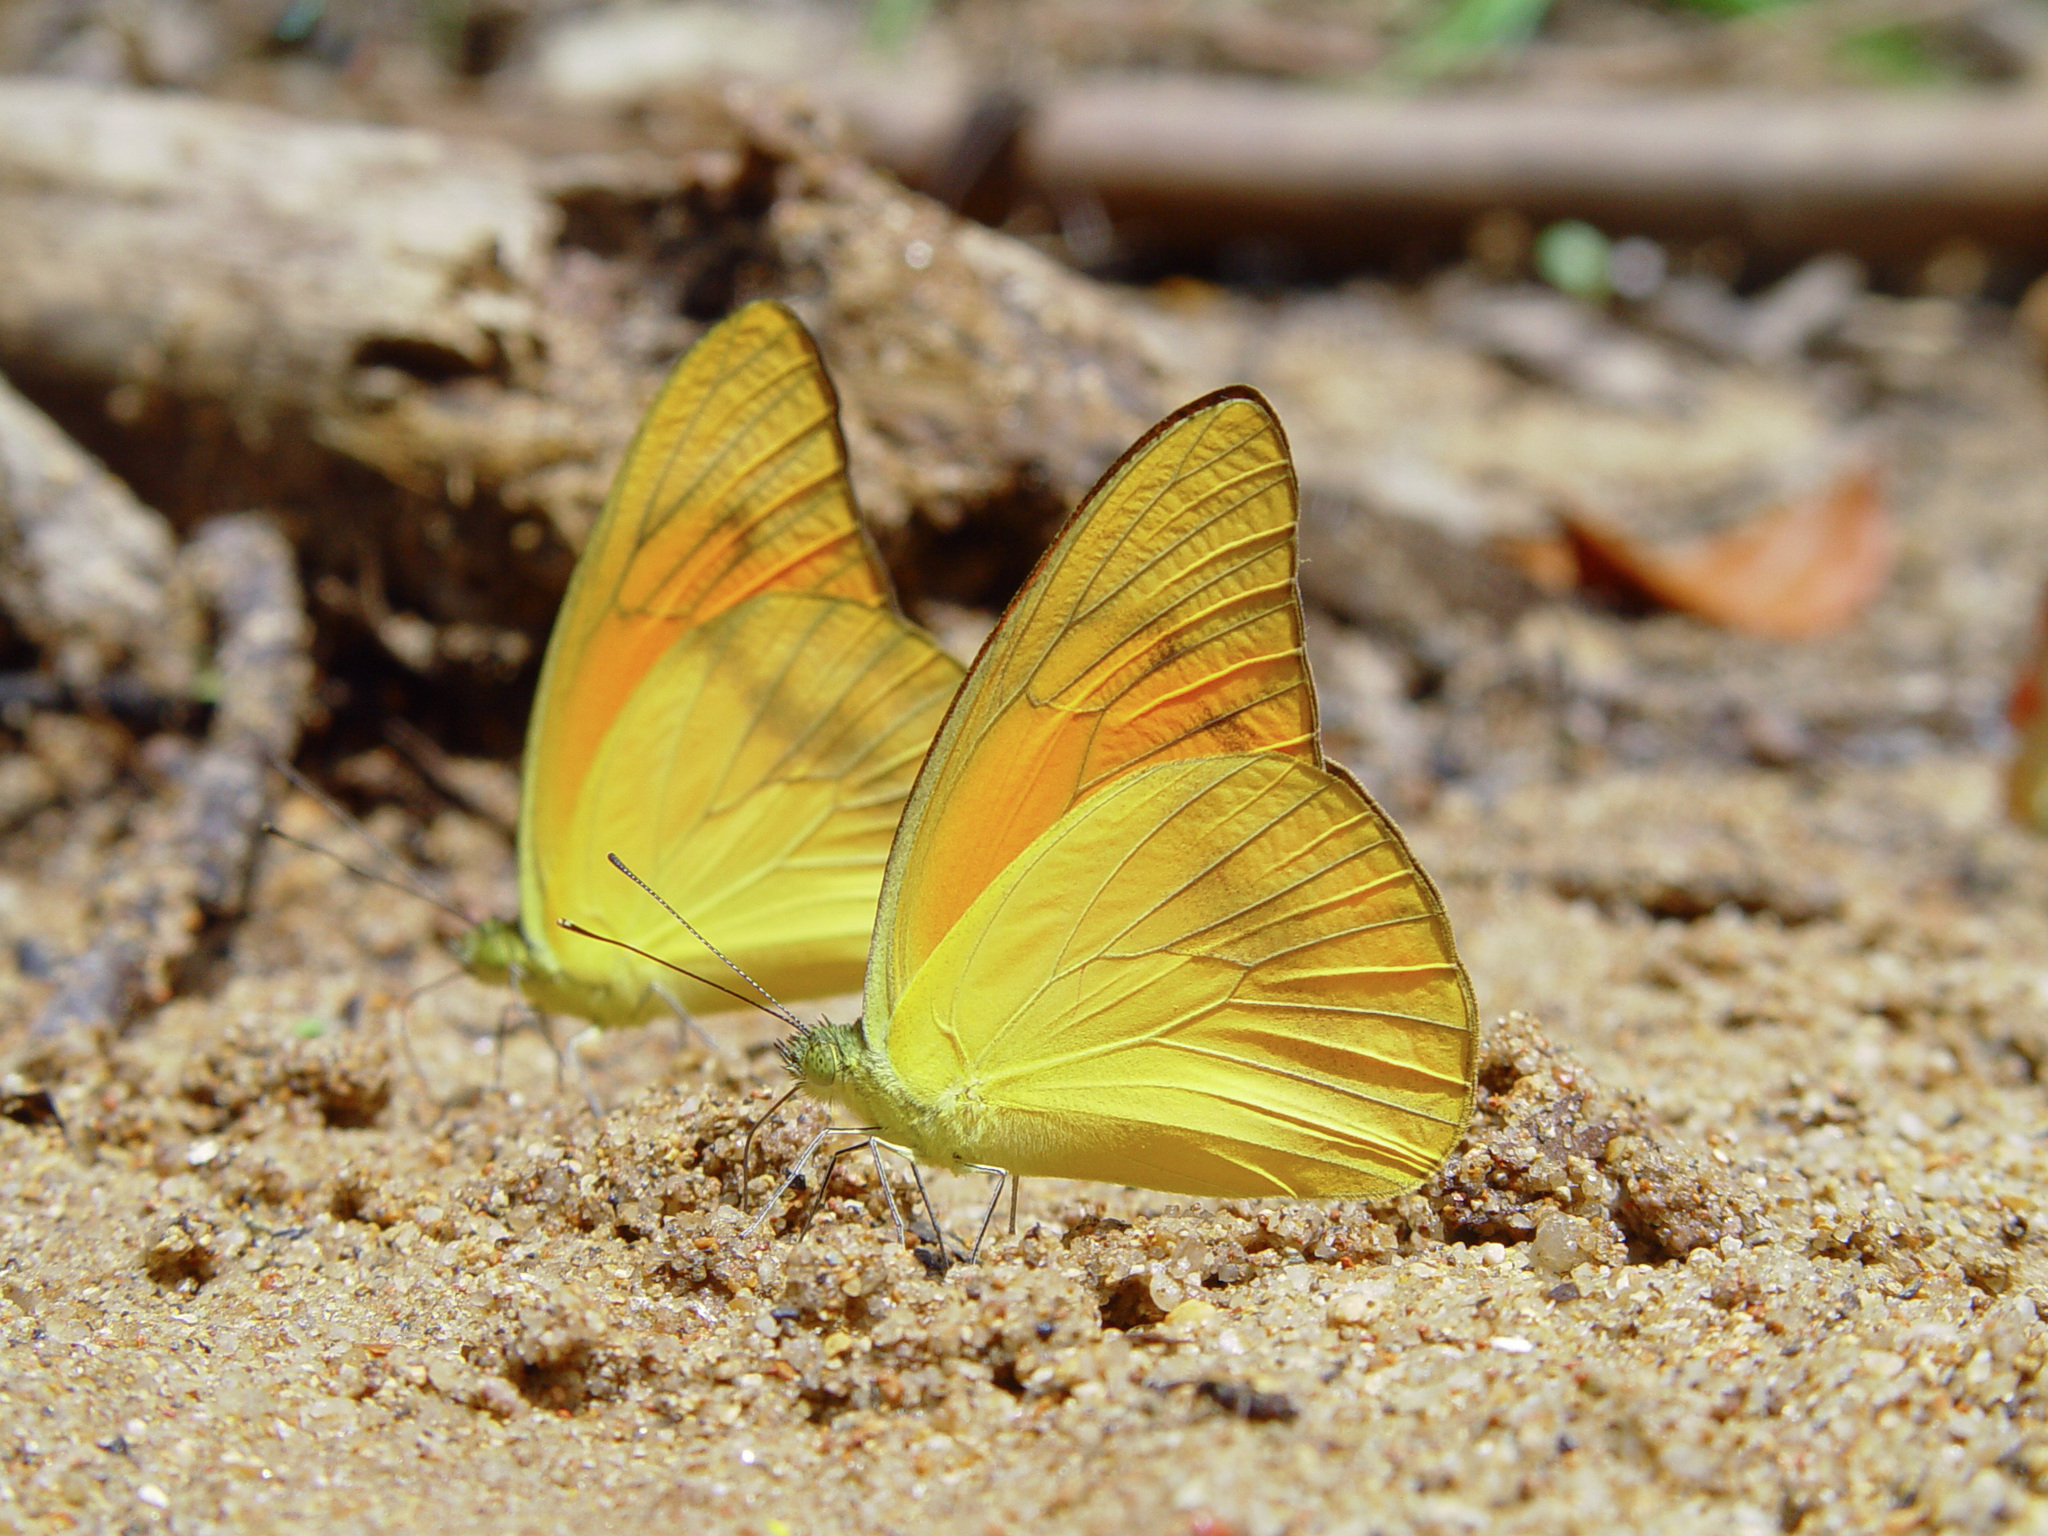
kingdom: Animalia
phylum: Arthropoda
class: Insecta
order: Lepidoptera
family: Pieridae
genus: Appias
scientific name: Appias nero
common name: Orange albatross
